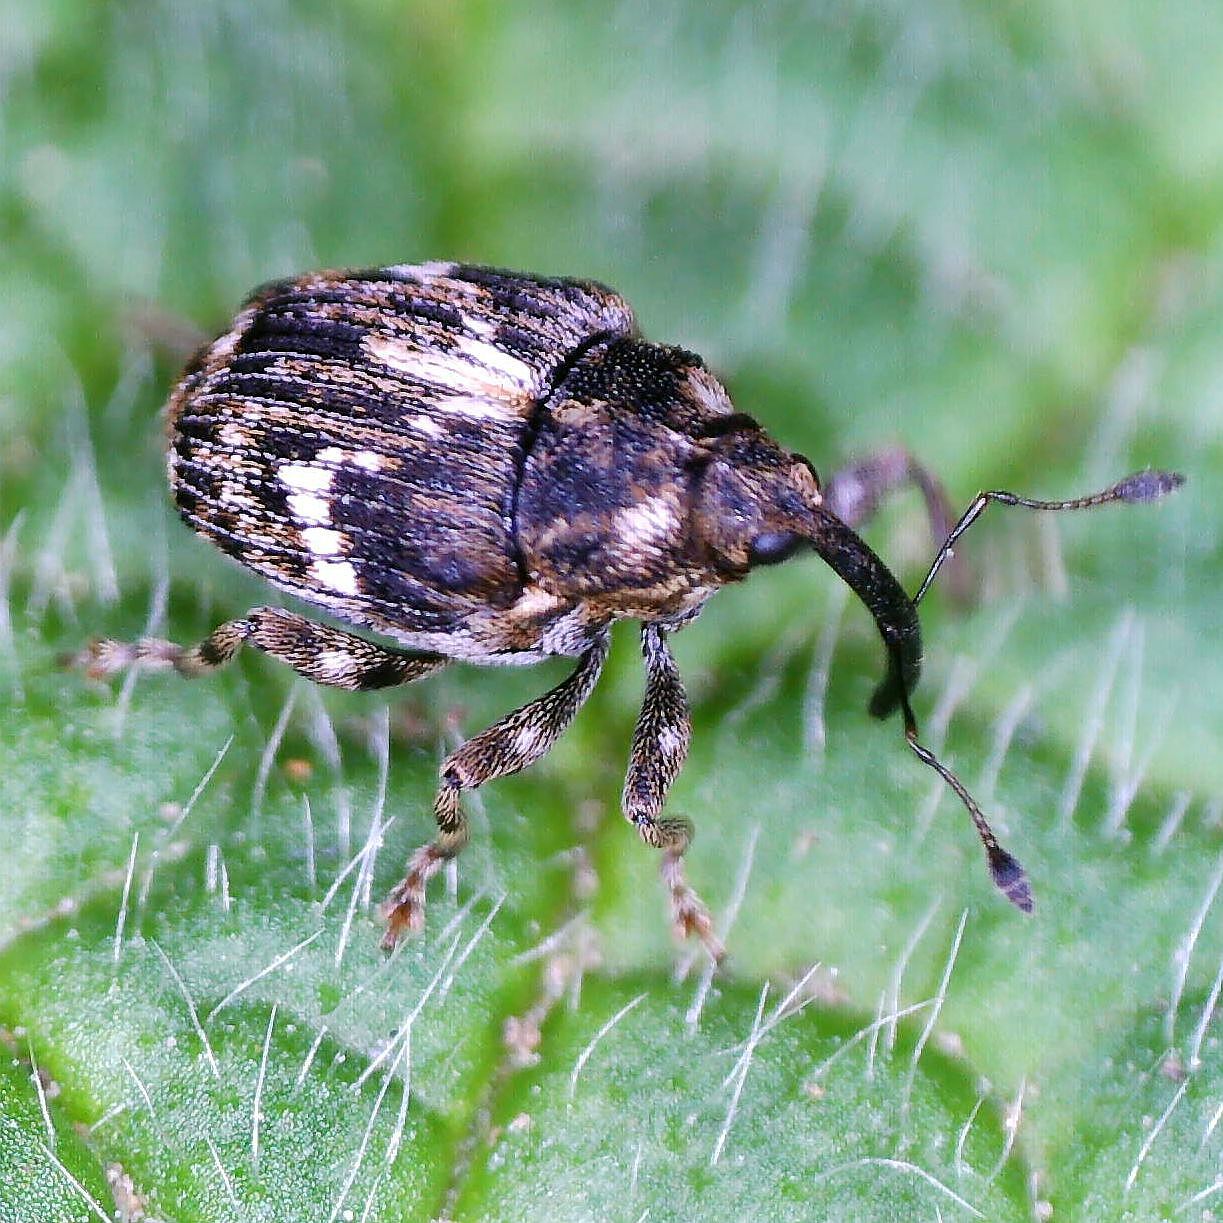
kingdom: Animalia
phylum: Arthropoda
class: Insecta
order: Coleoptera
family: Curculionidae
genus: Microplontus
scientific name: Microplontus campestris
